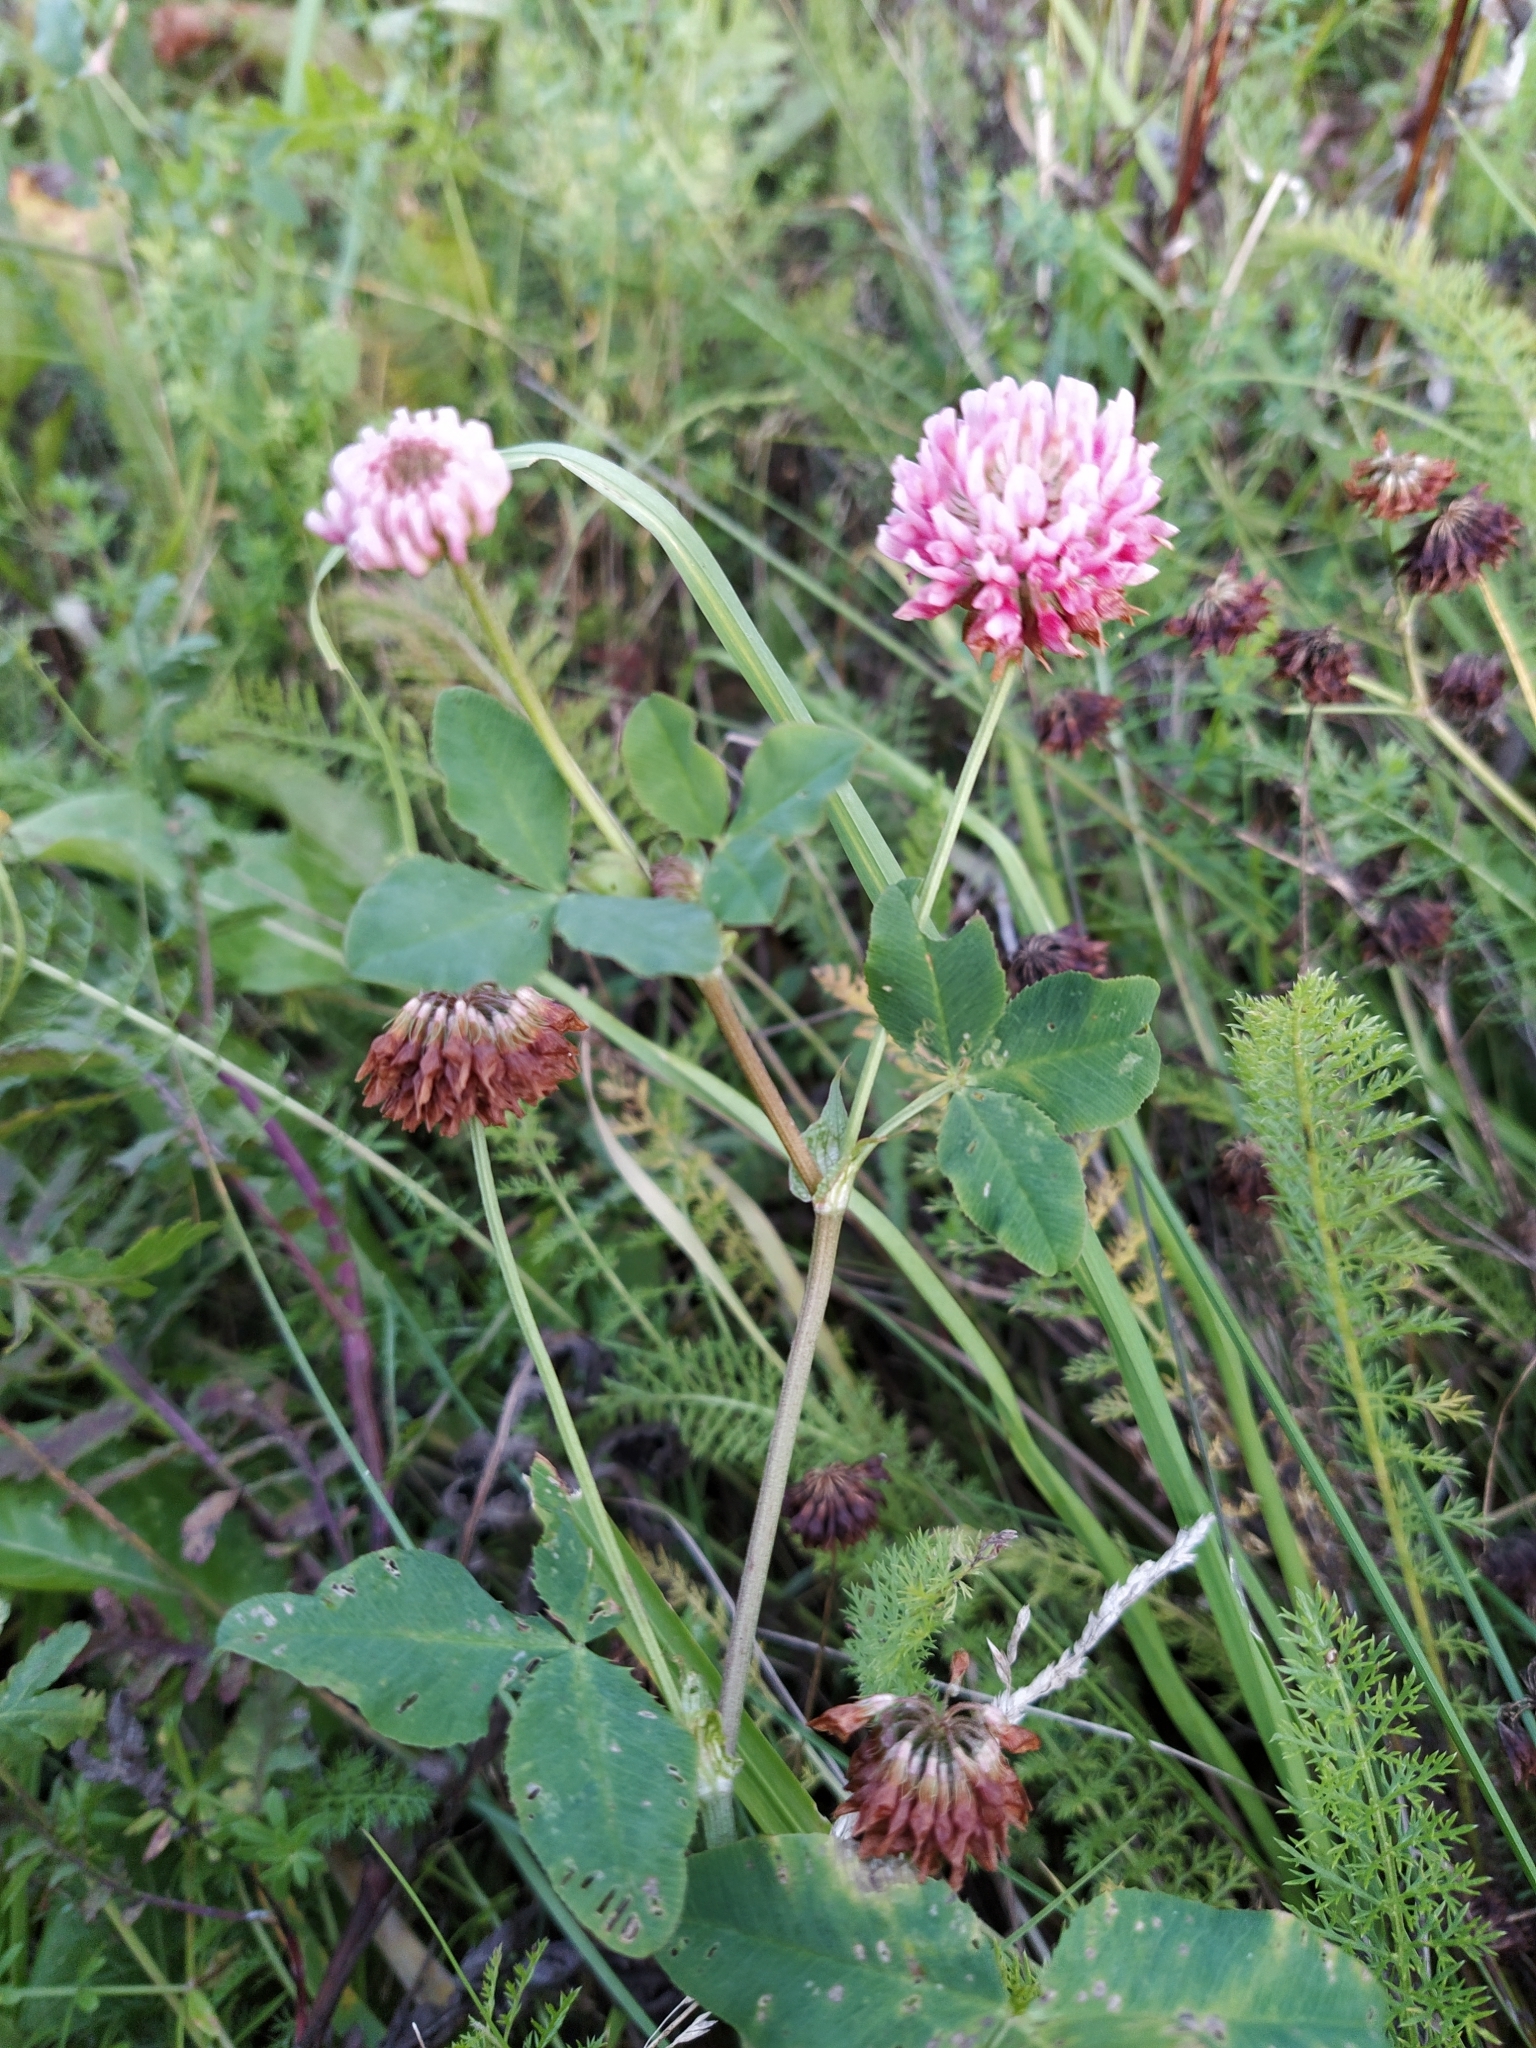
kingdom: Plantae
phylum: Tracheophyta
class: Magnoliopsida
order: Fabales
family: Fabaceae
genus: Trifolium
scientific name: Trifolium hybridum
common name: Alsike clover
